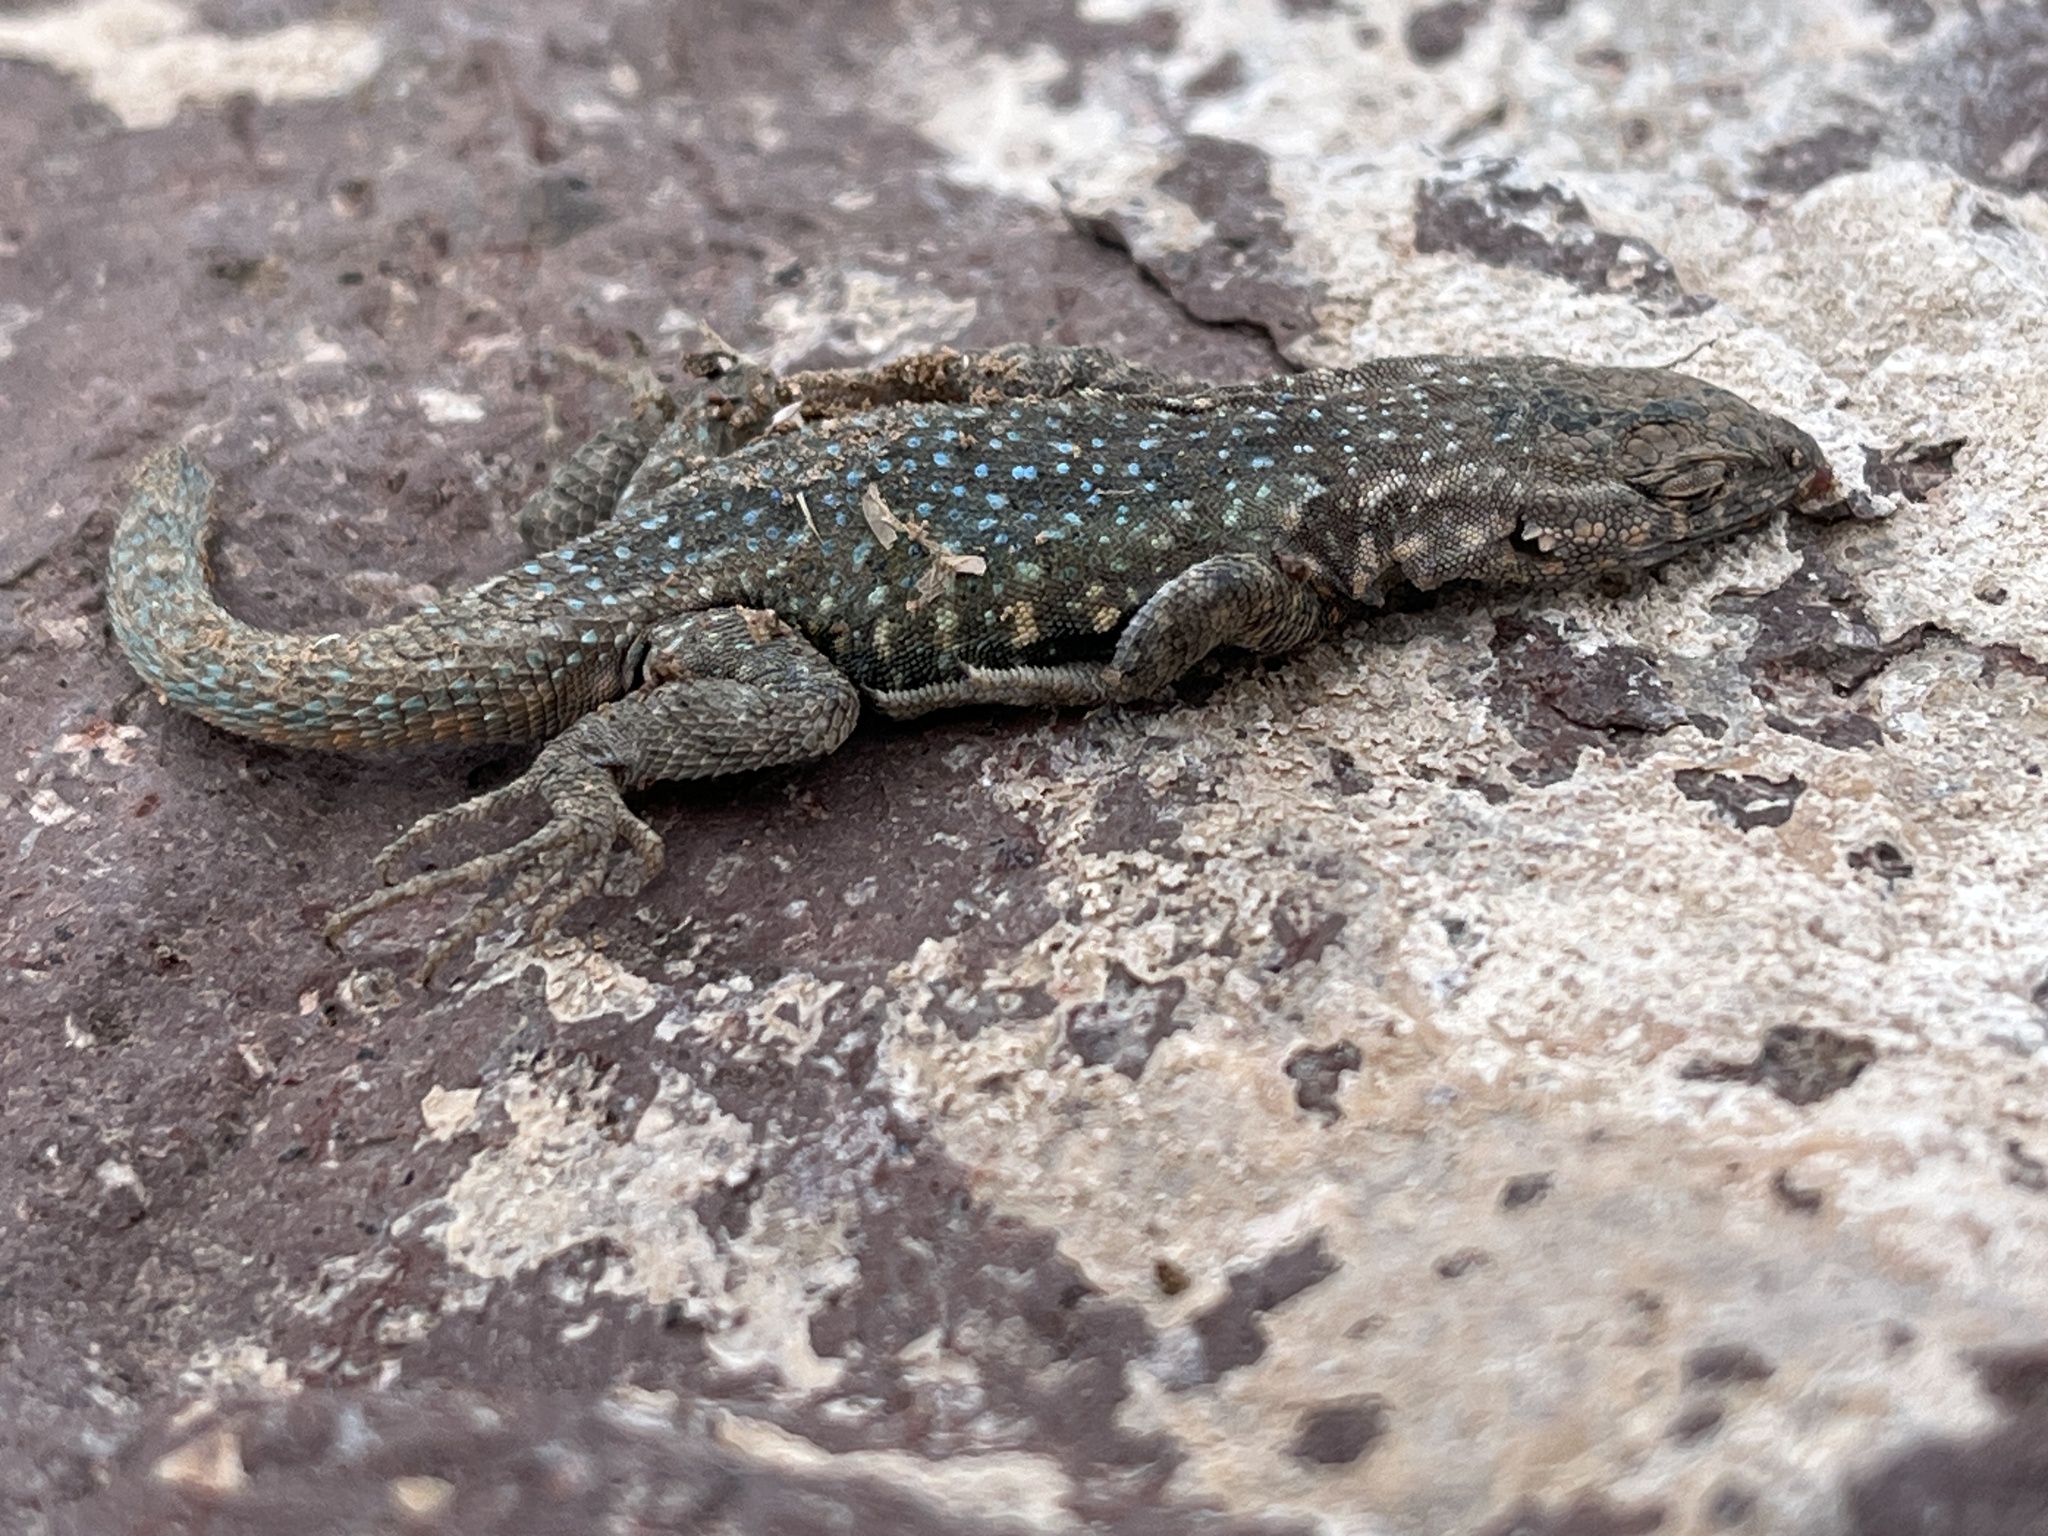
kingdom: Animalia
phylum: Chordata
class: Squamata
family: Phrynosomatidae
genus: Uta
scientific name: Uta stansburiana
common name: Side-blotched lizard
